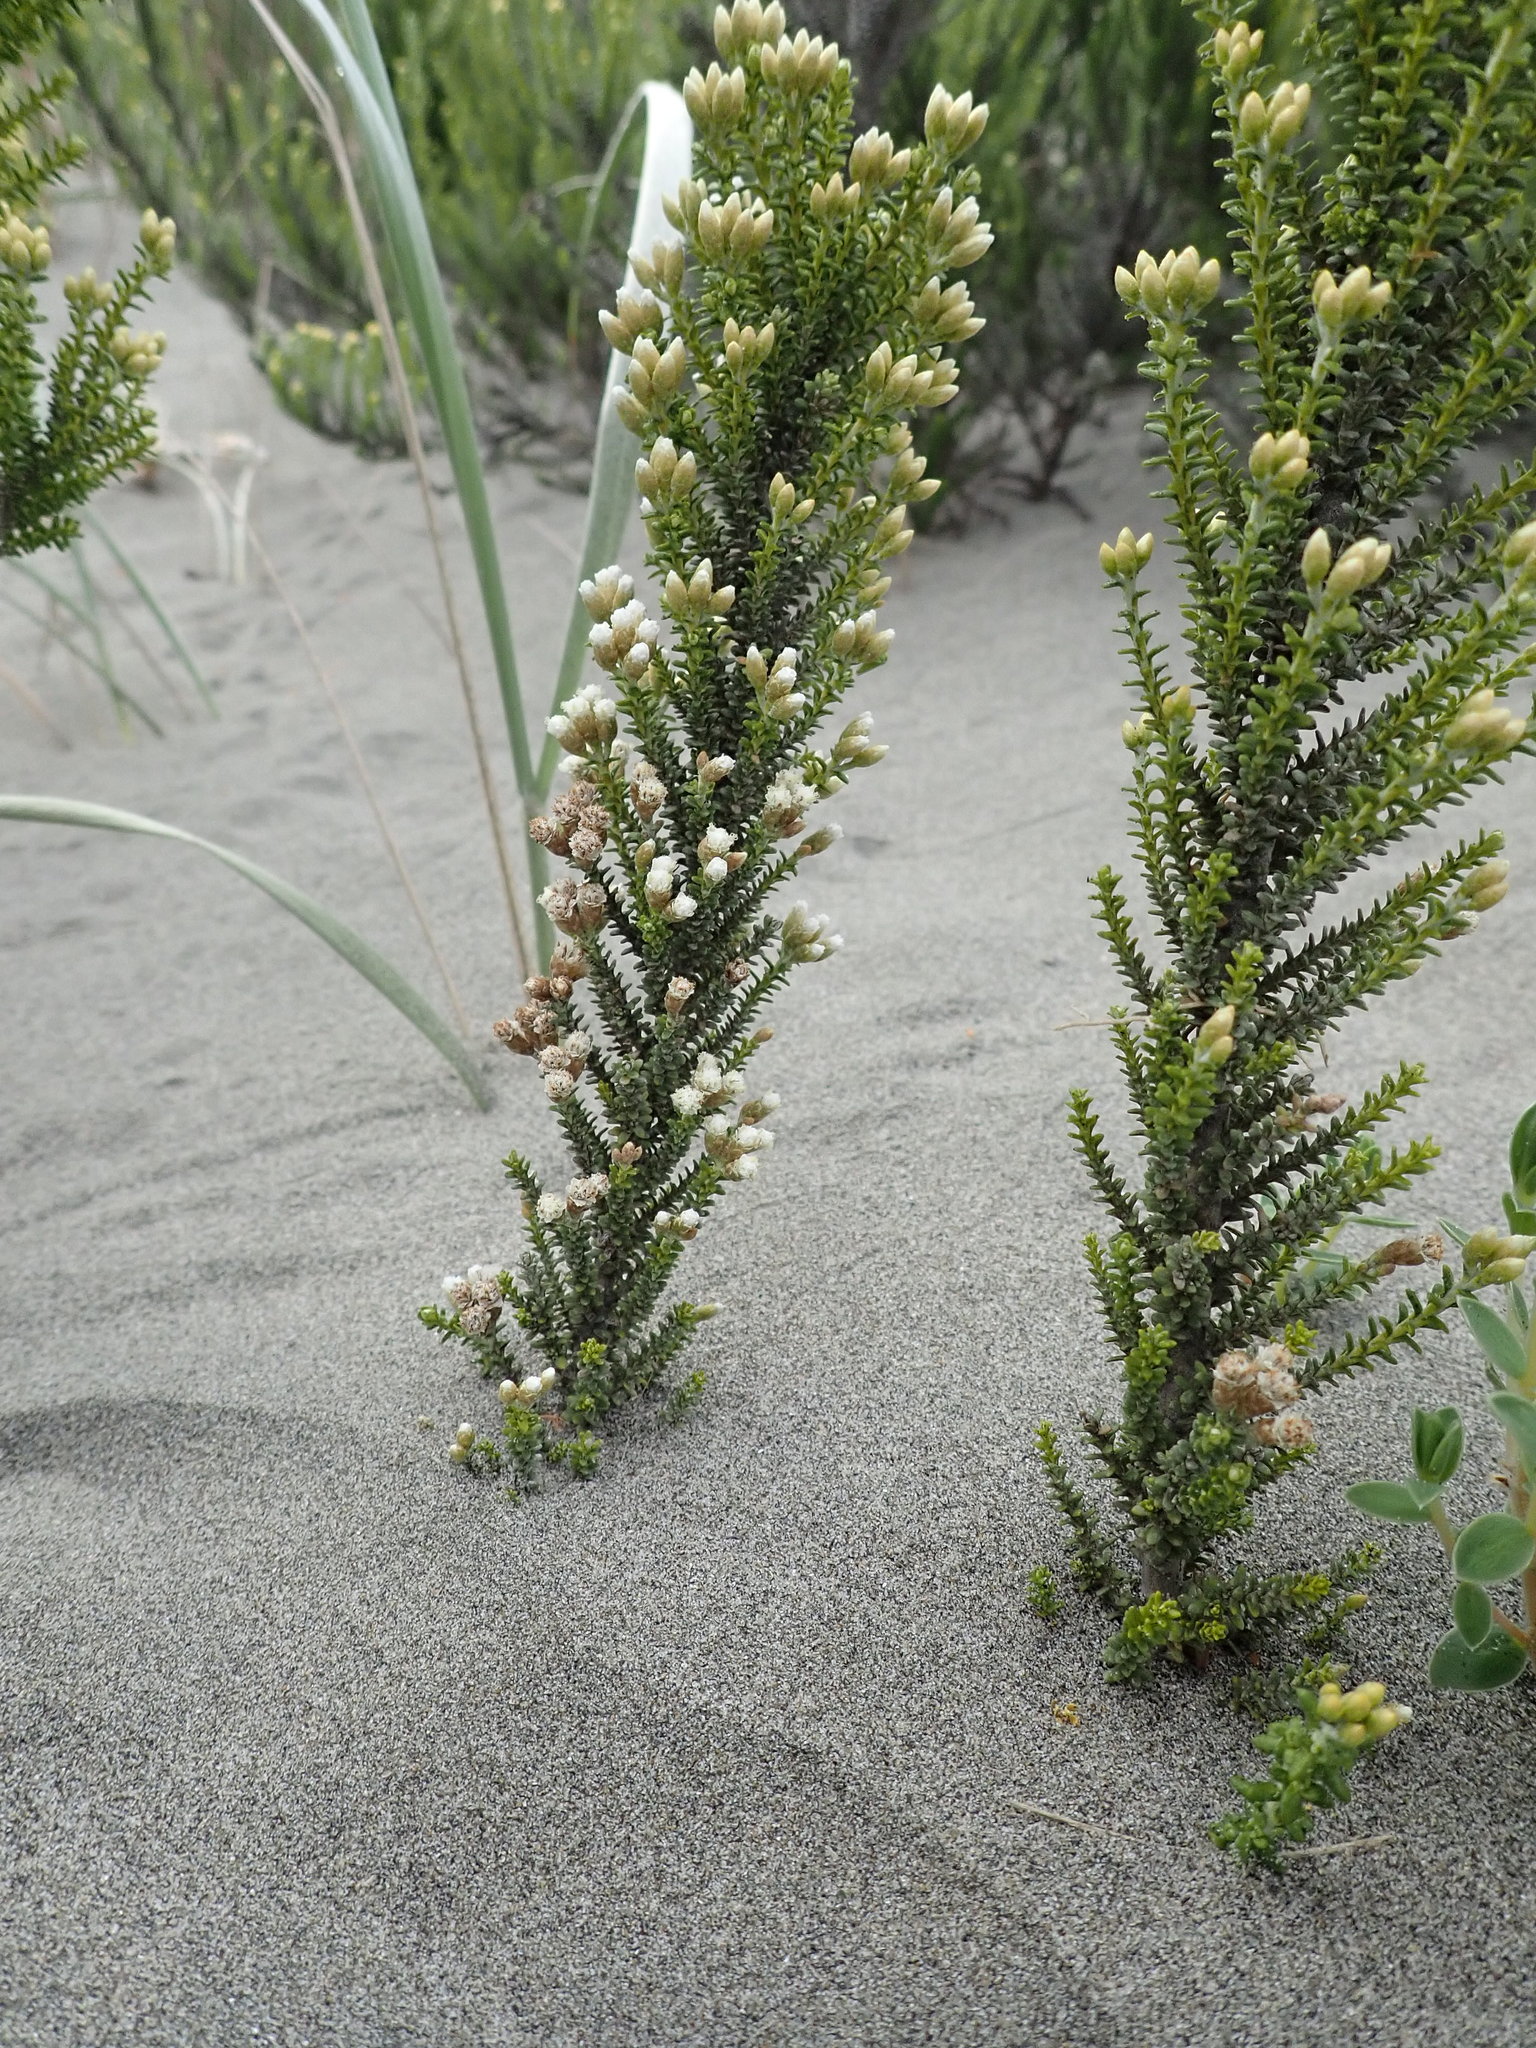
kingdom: Plantae
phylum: Tracheophyta
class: Magnoliopsida
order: Asterales
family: Asteraceae
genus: Ozothamnus
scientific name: Ozothamnus leptophyllus
